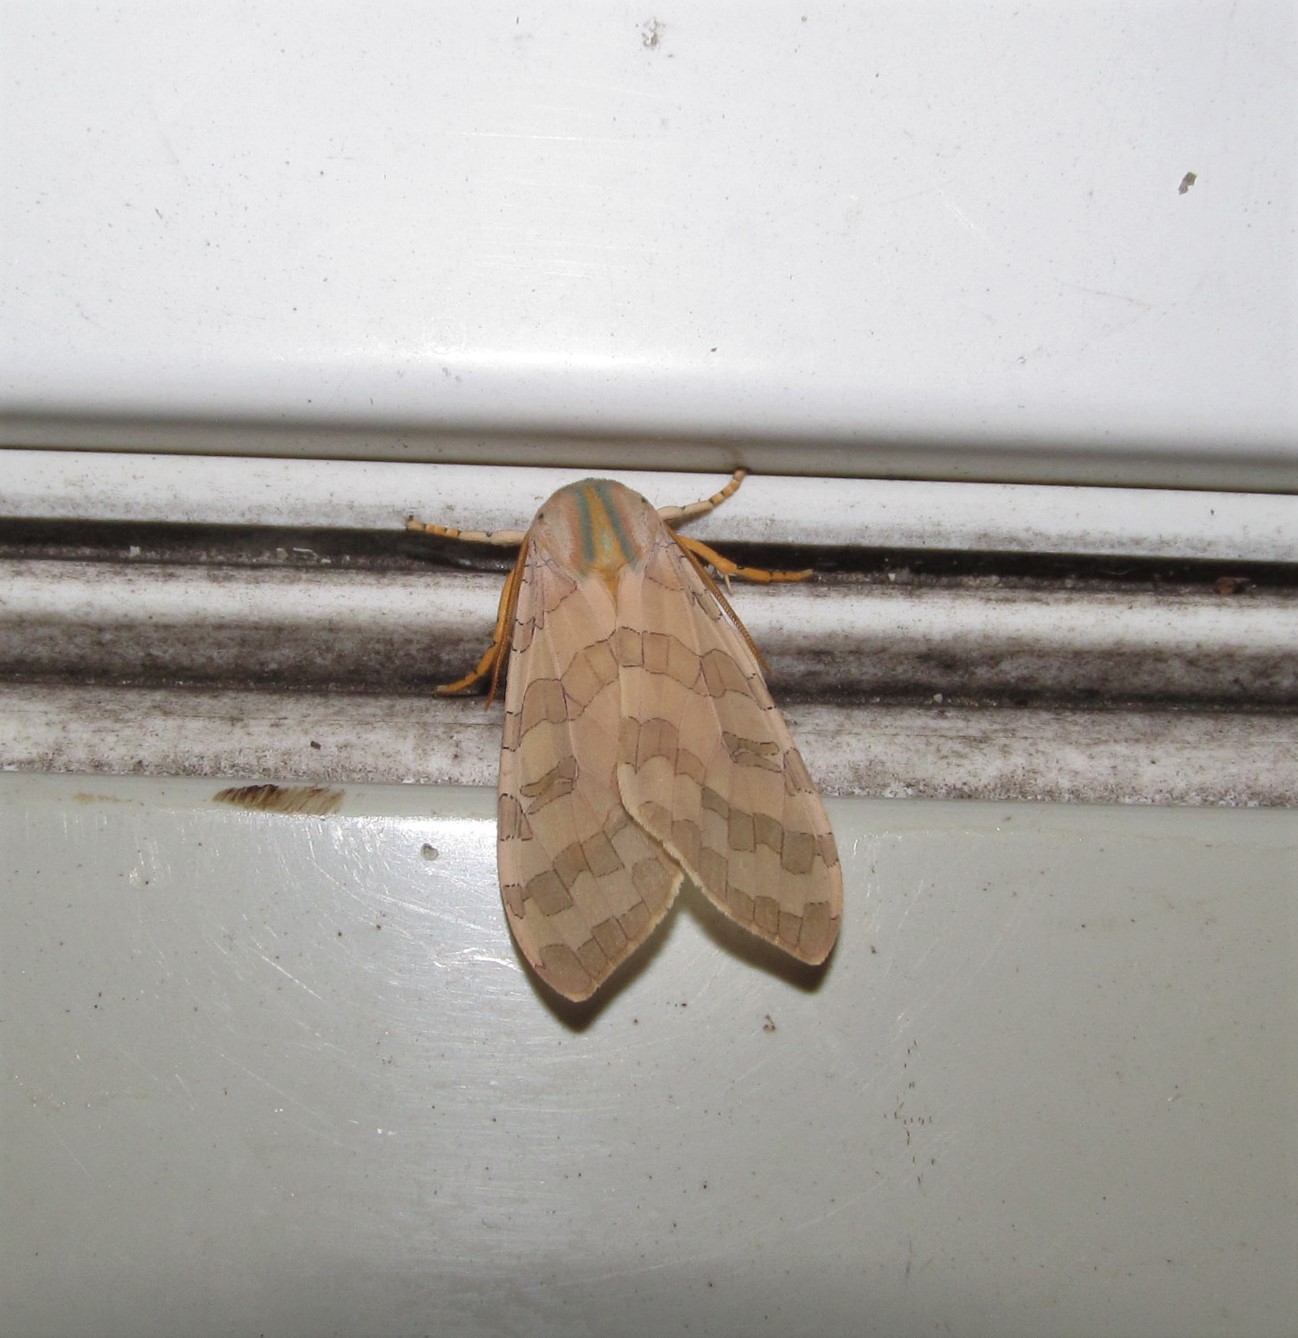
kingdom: Animalia
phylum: Arthropoda
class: Insecta
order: Lepidoptera
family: Erebidae
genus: Halysidota
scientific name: Halysidota
